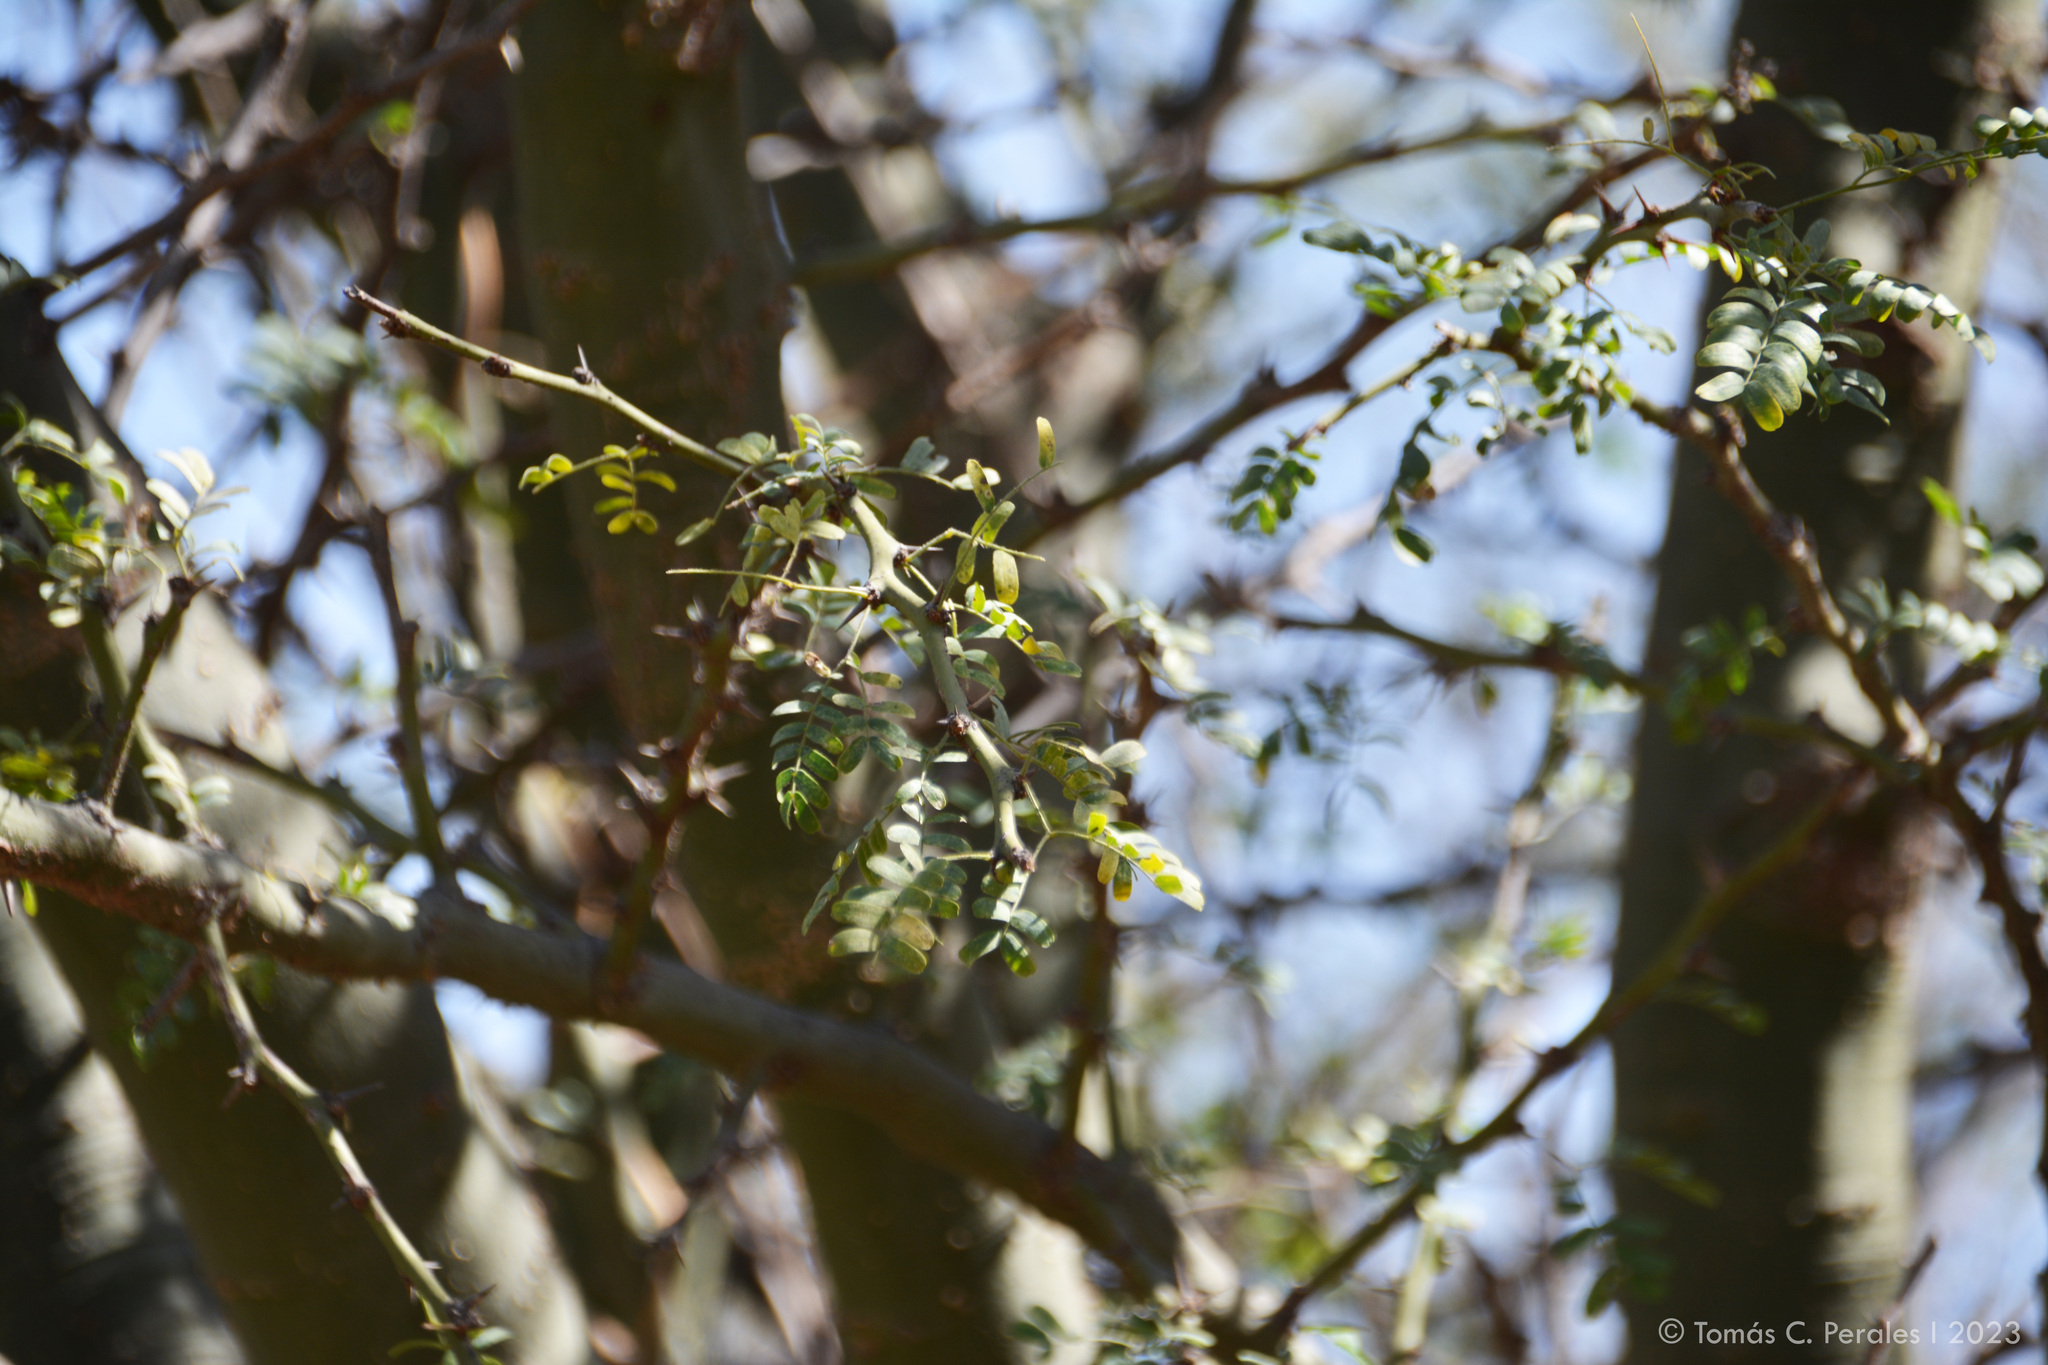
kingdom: Plantae
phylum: Tracheophyta
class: Magnoliopsida
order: Fabales
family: Fabaceae
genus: Parkinsonia
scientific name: Parkinsonia praecox
